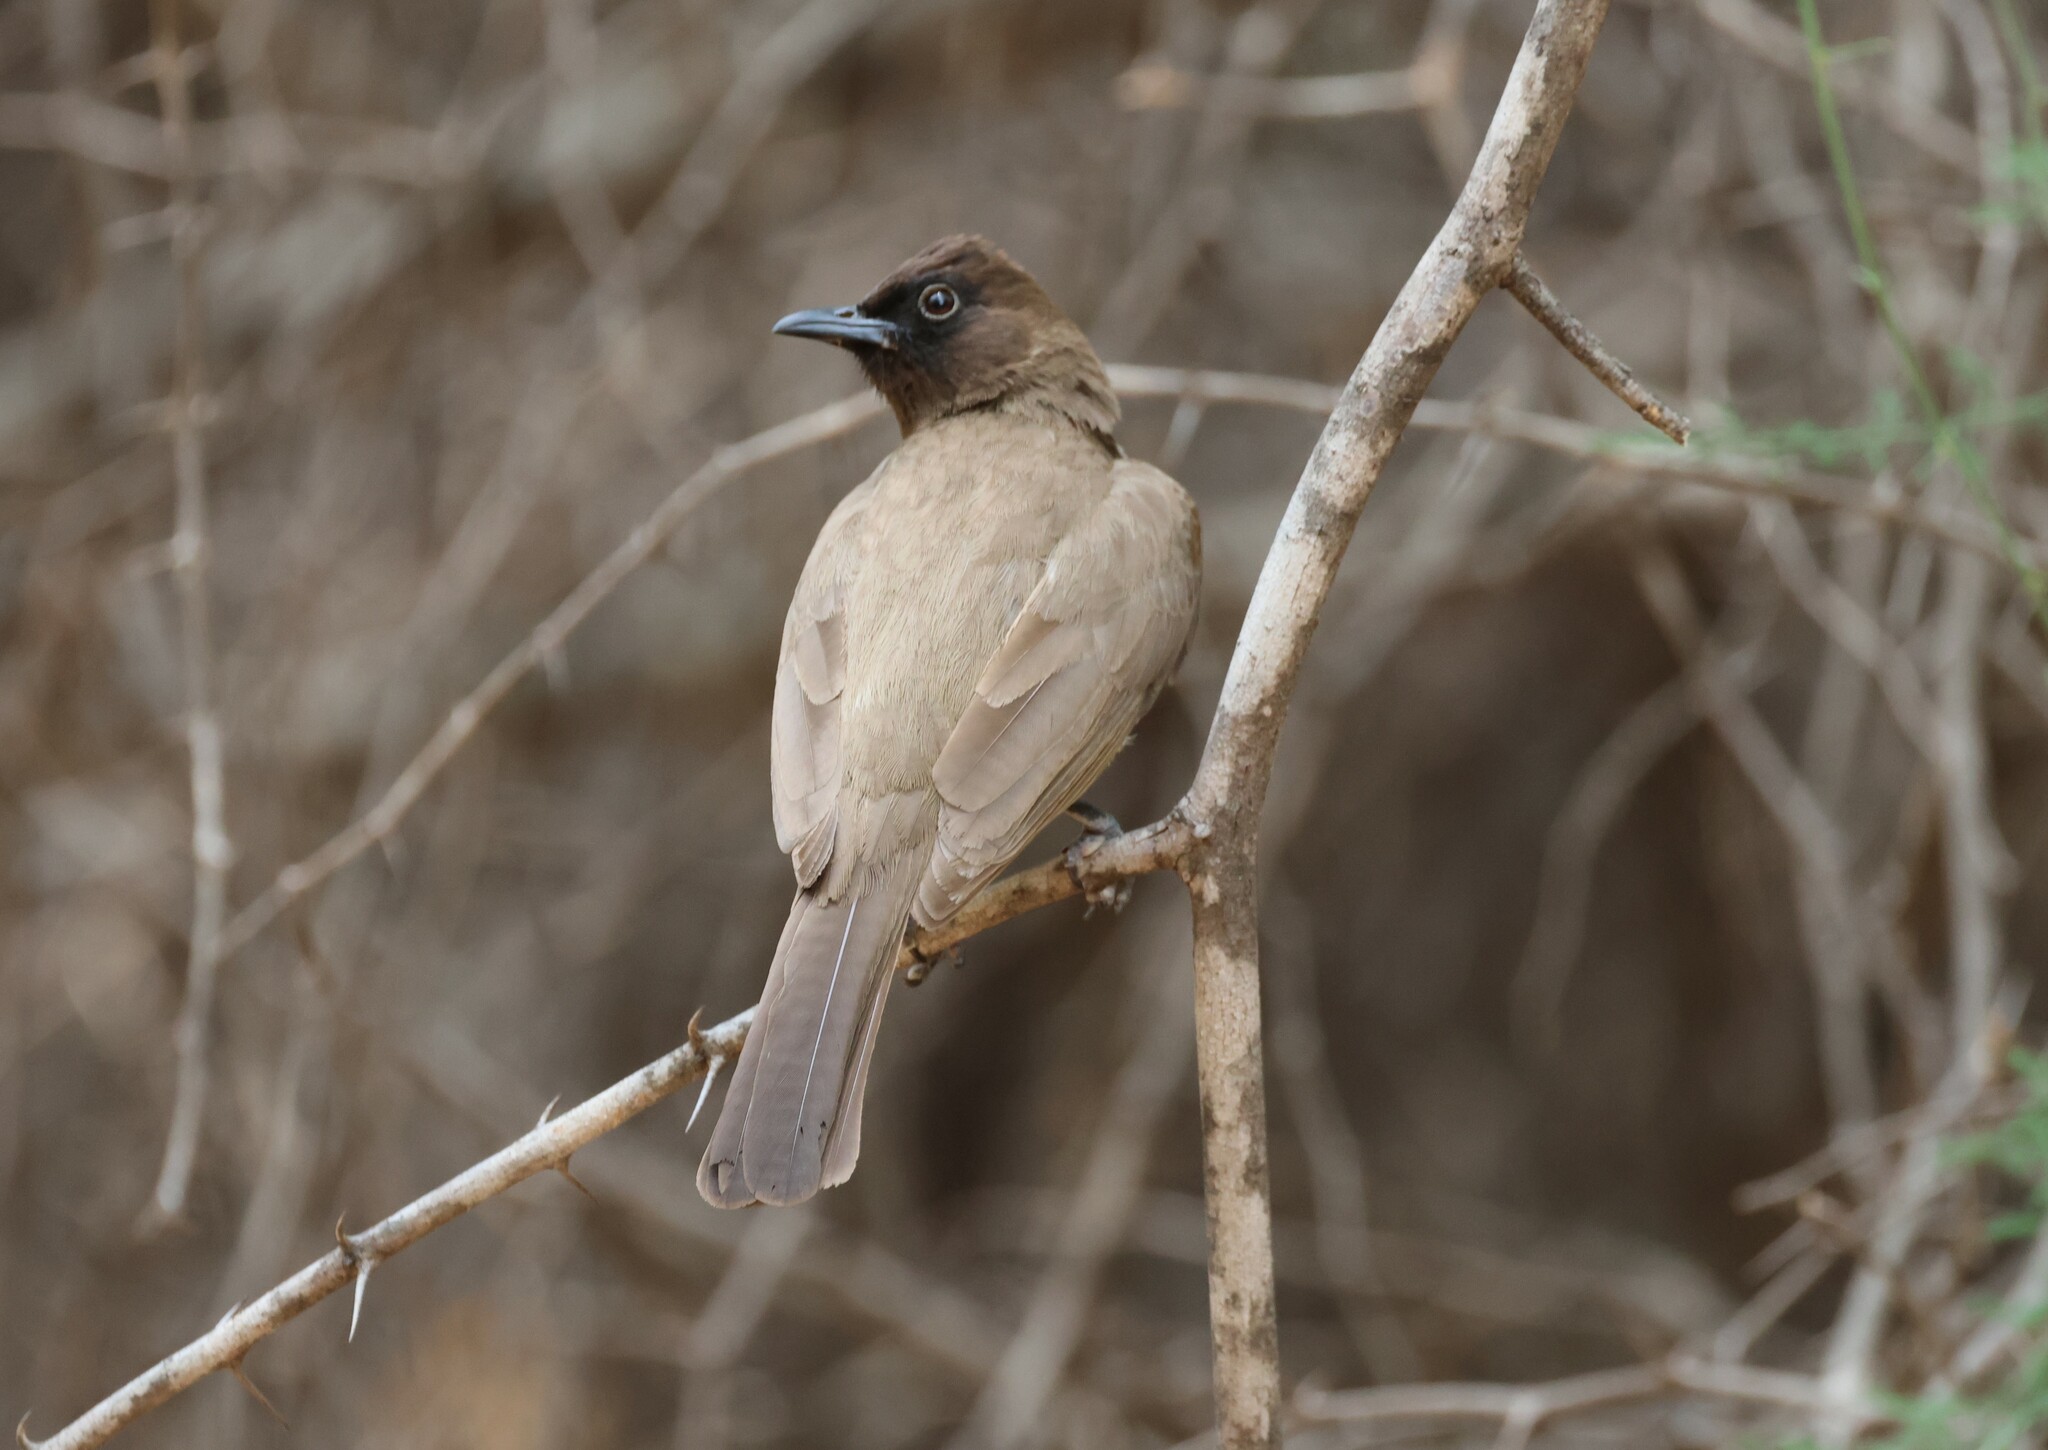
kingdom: Animalia
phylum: Chordata
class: Aves
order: Passeriformes
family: Pycnonotidae
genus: Pycnonotus
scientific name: Pycnonotus barbatus
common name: Common bulbul
